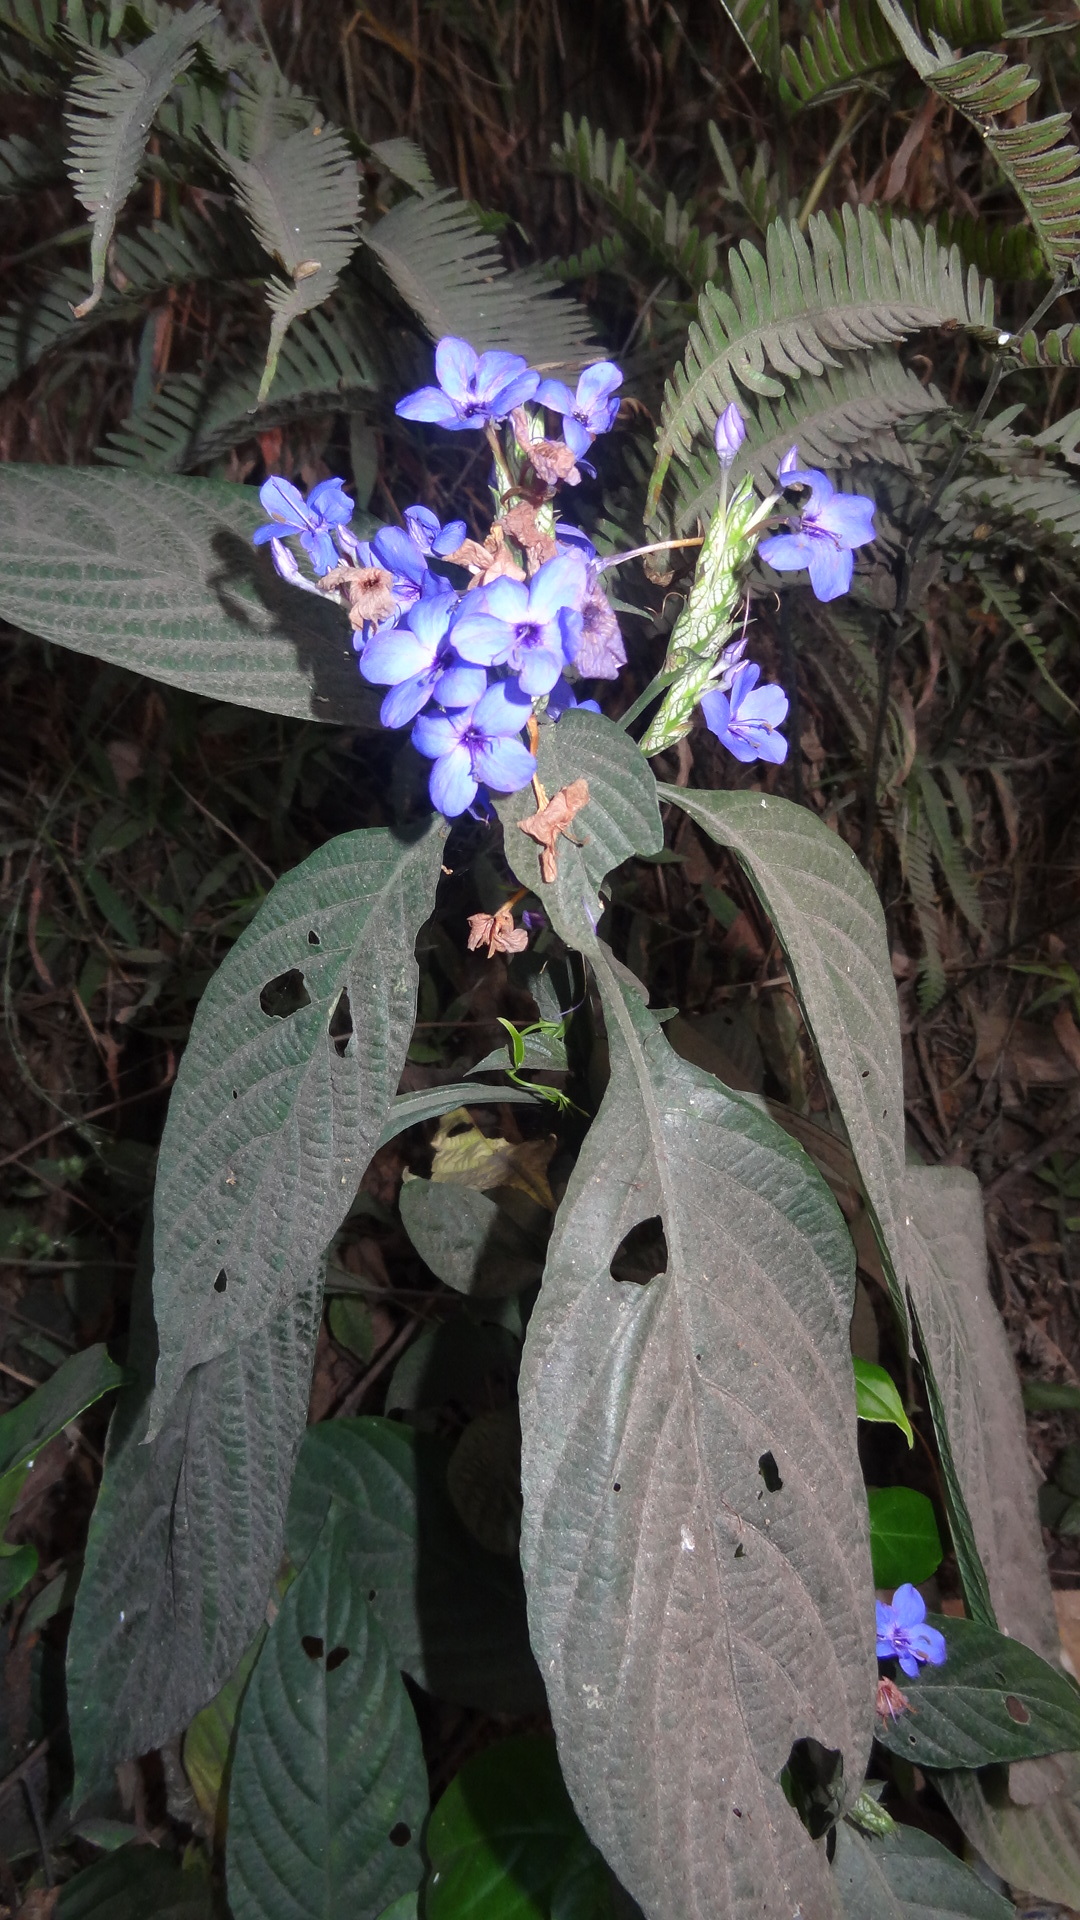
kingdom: Plantae
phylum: Tracheophyta
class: Magnoliopsida
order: Lamiales
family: Acanthaceae
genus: Eranthemum
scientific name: Eranthemum roseum
